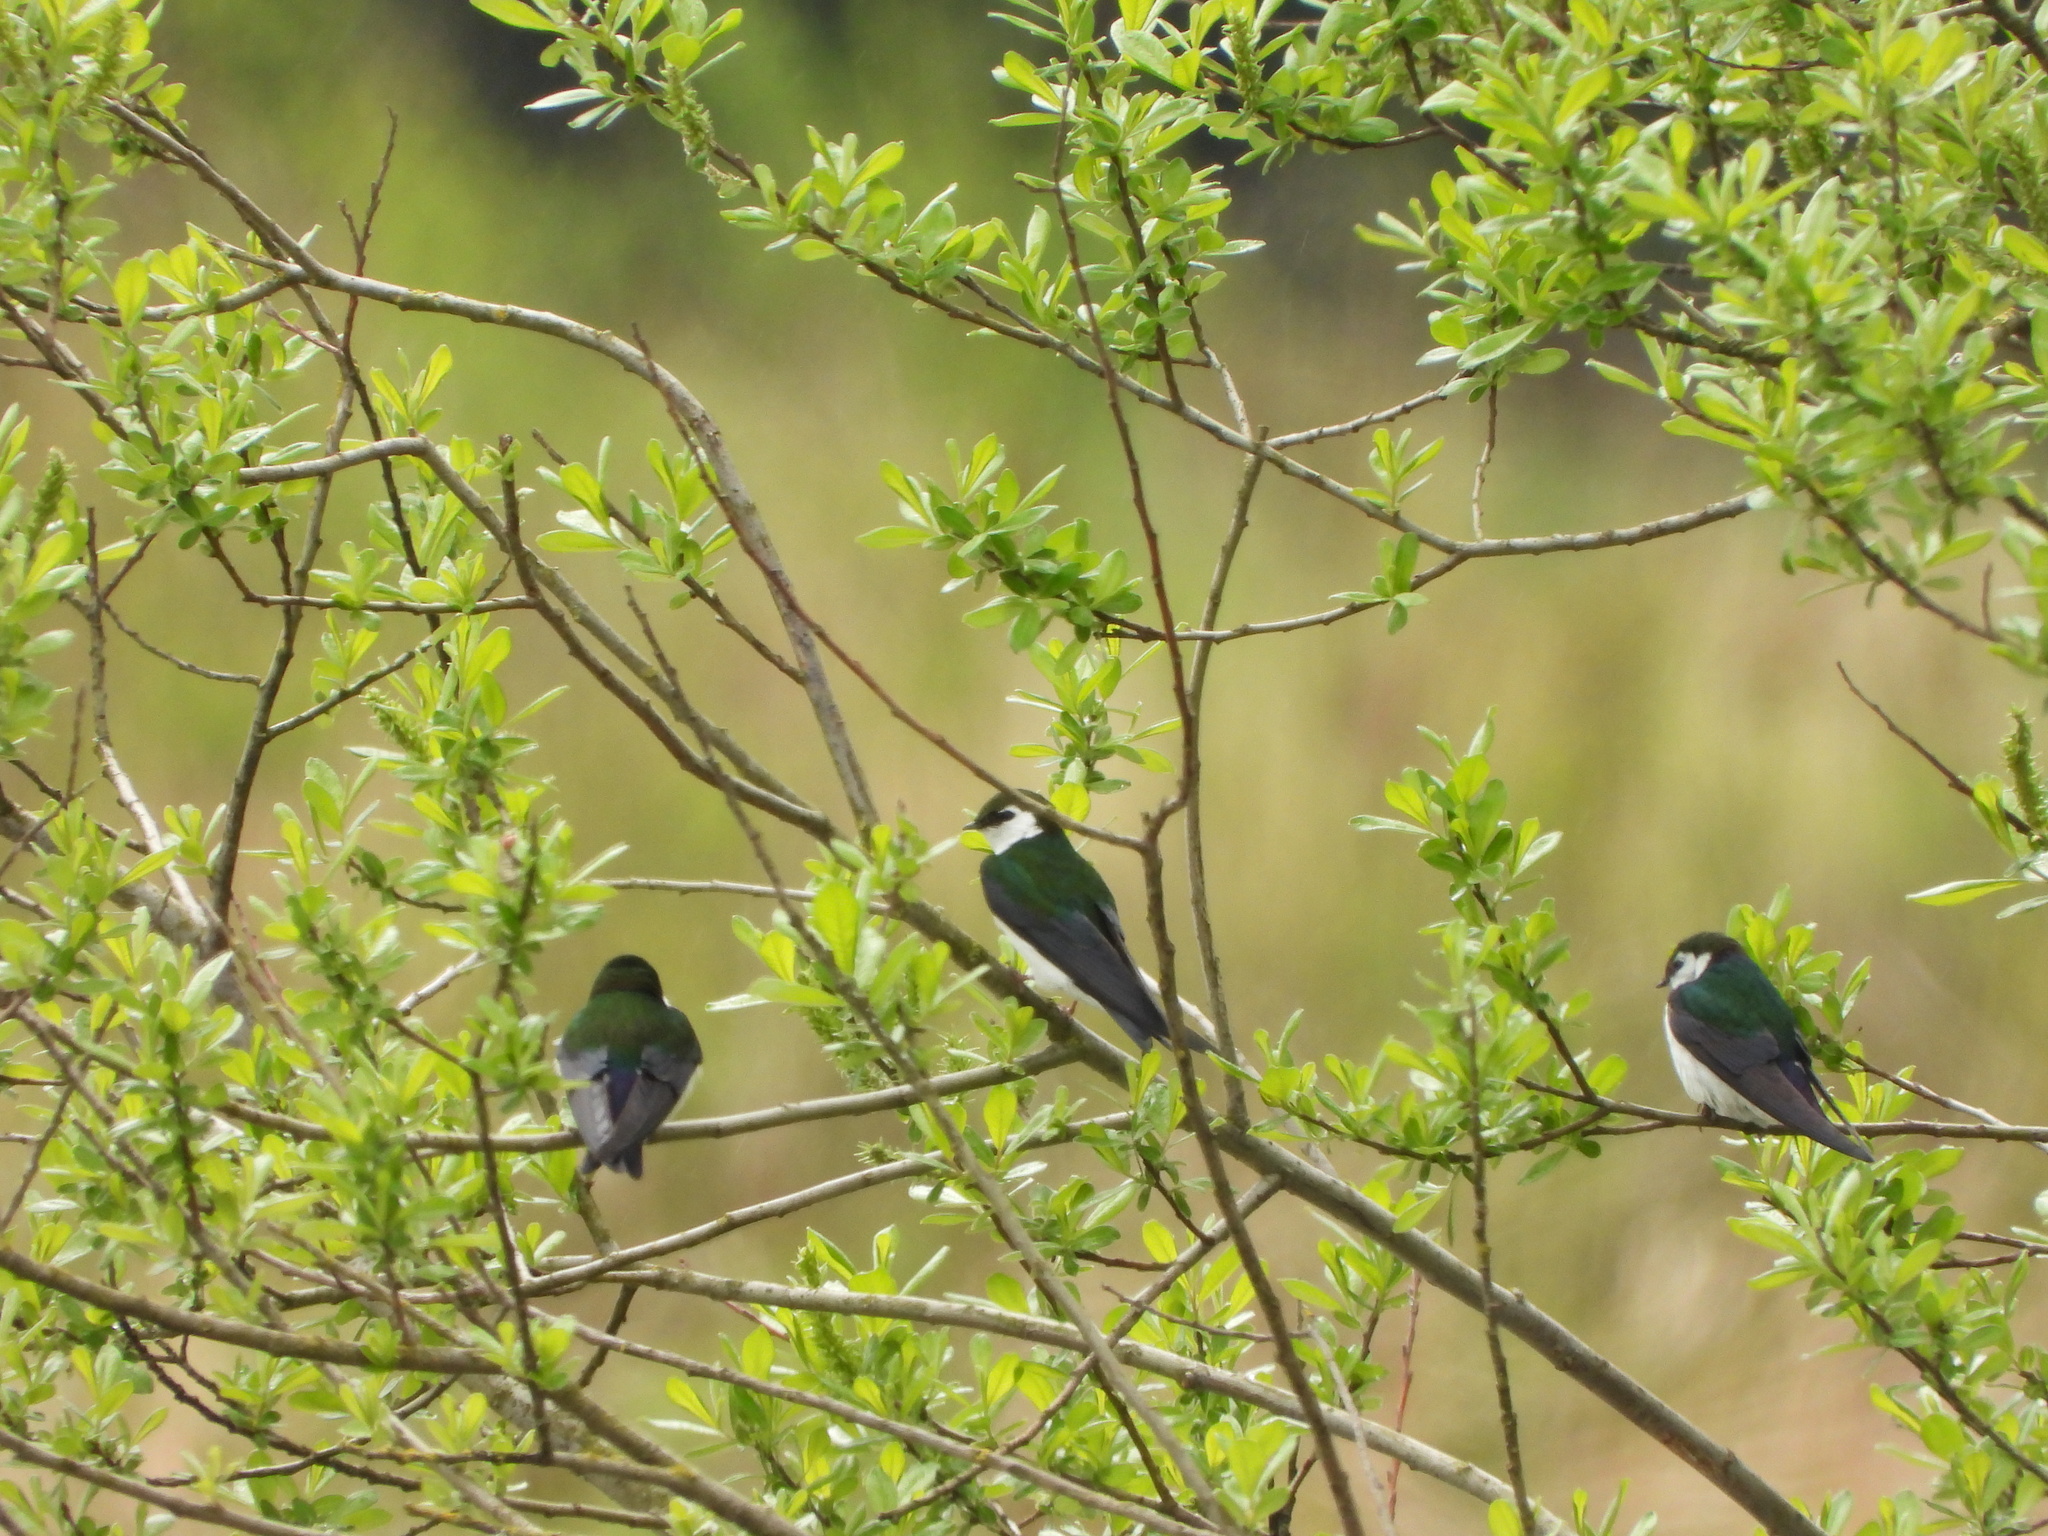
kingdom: Animalia
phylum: Chordata
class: Aves
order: Passeriformes
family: Hirundinidae
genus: Tachycineta
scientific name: Tachycineta thalassina
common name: Violet-green swallow
